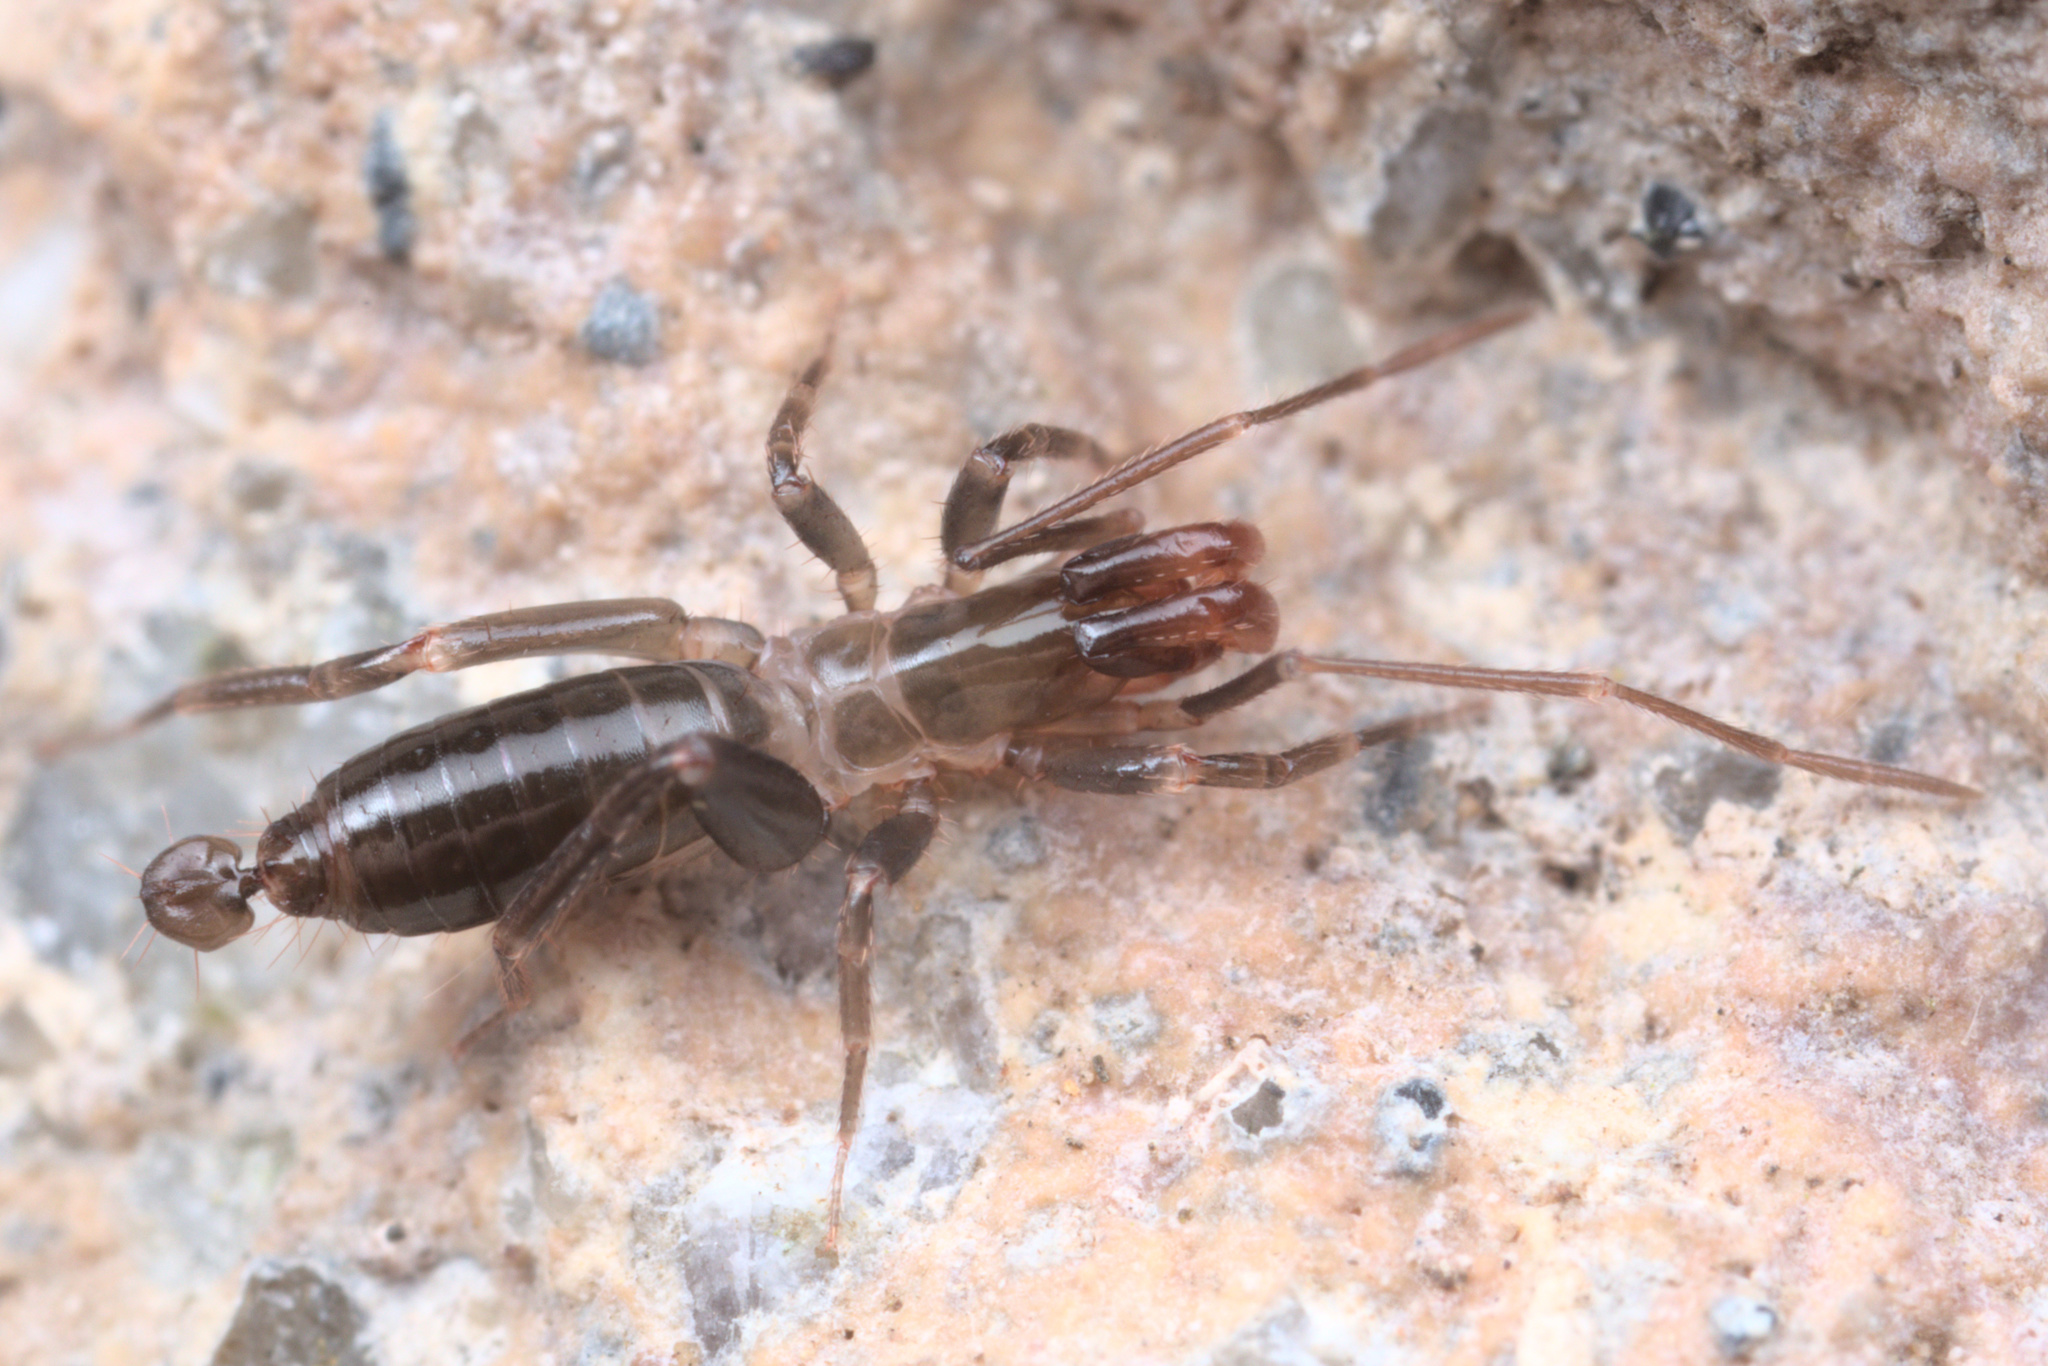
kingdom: Animalia
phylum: Arthropoda
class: Arachnida
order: Schizomida
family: Hubbardiidae
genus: Hubbardia
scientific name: Hubbardia belkini
